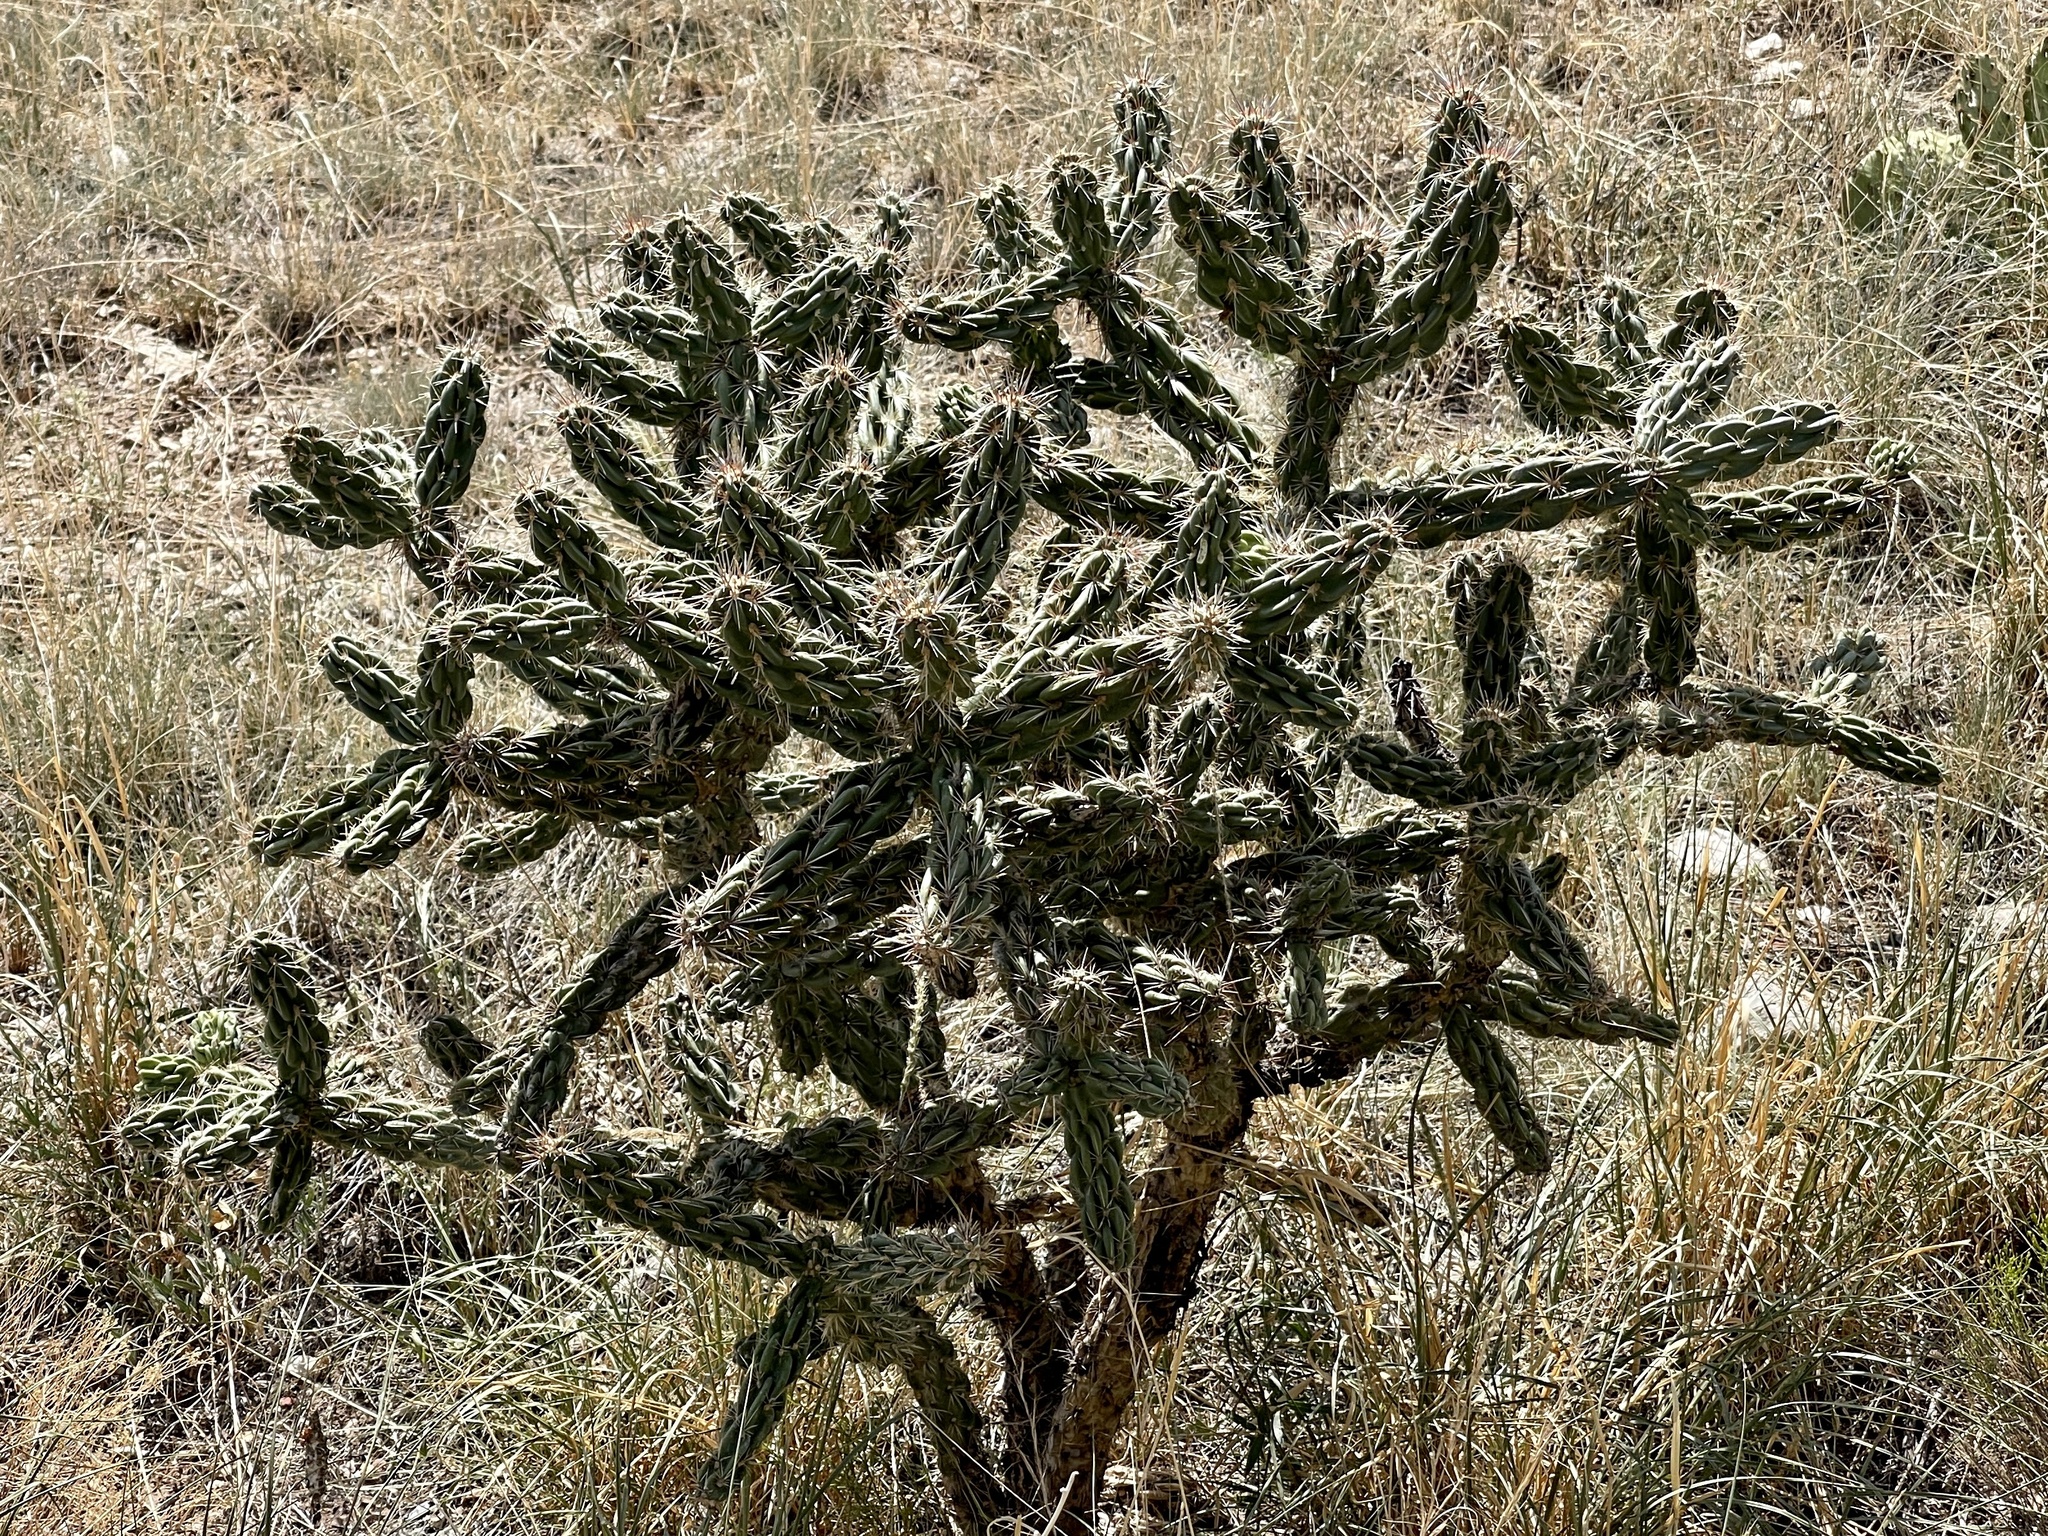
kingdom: Plantae
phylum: Tracheophyta
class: Magnoliopsida
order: Caryophyllales
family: Cactaceae
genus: Cylindropuntia
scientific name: Cylindropuntia imbricata
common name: Candelabrum cactus
